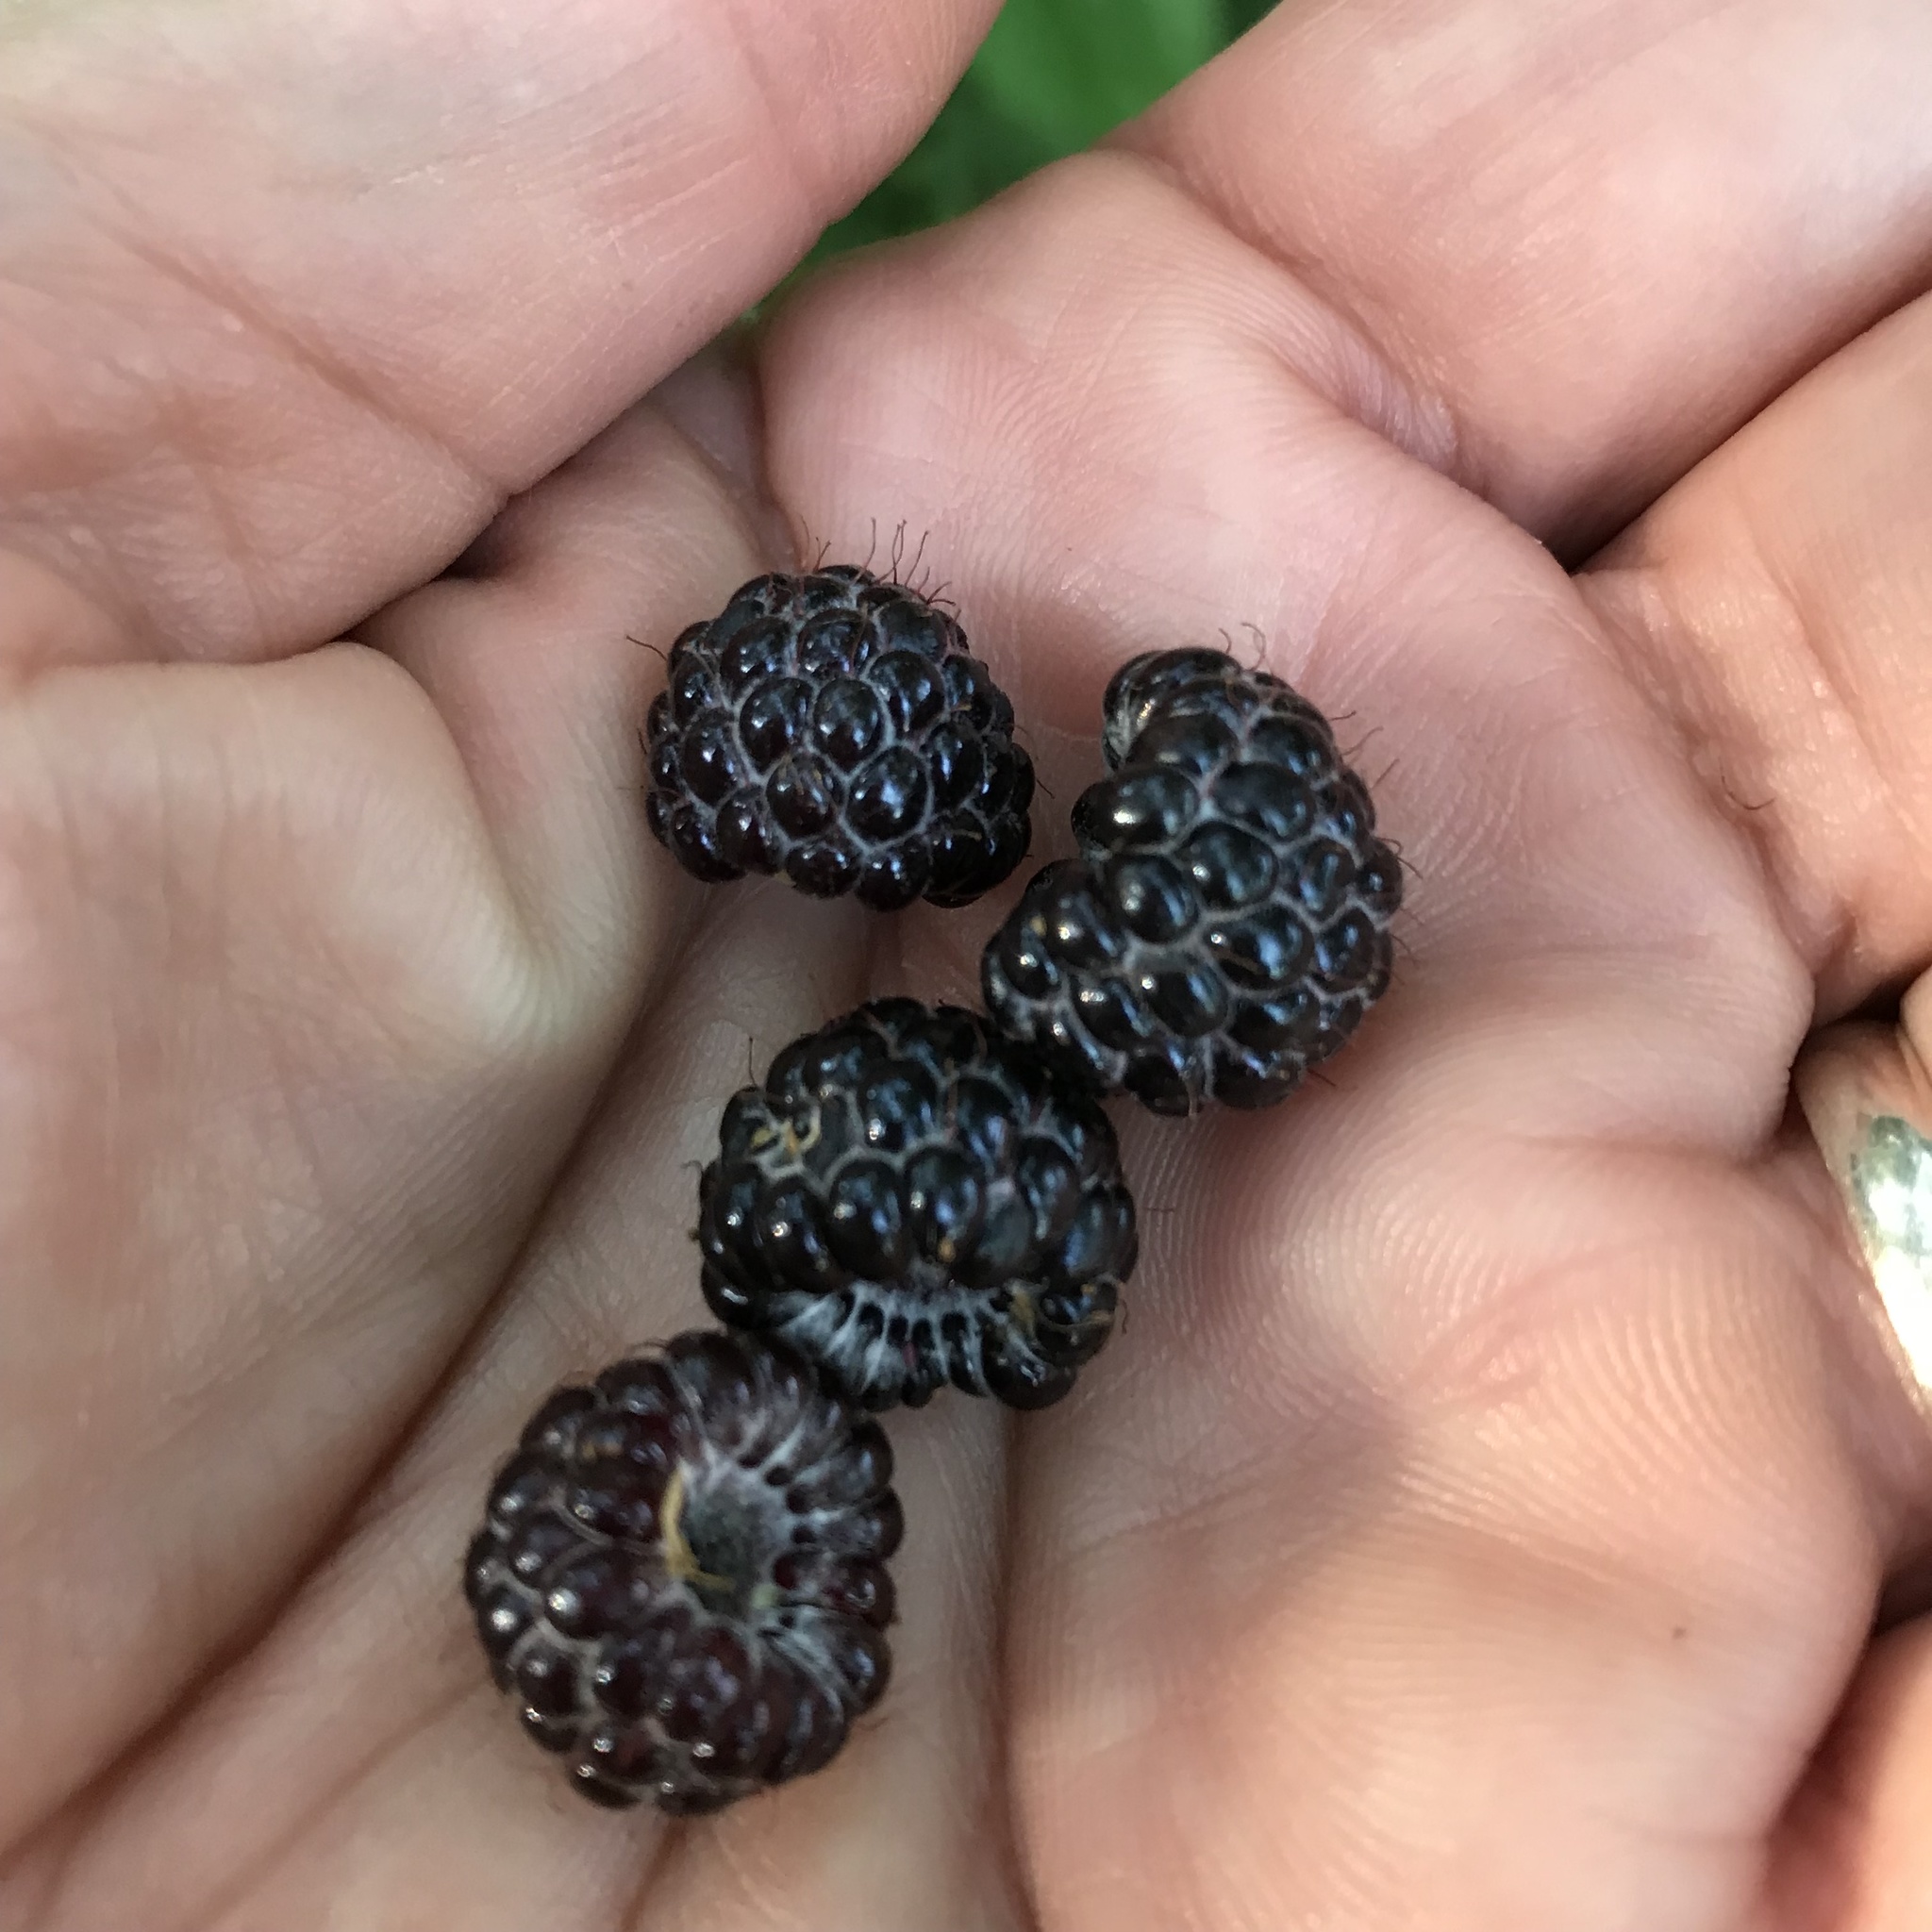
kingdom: Plantae
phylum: Tracheophyta
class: Magnoliopsida
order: Rosales
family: Rosaceae
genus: Rubus
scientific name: Rubus occidentalis
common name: Black raspberry
